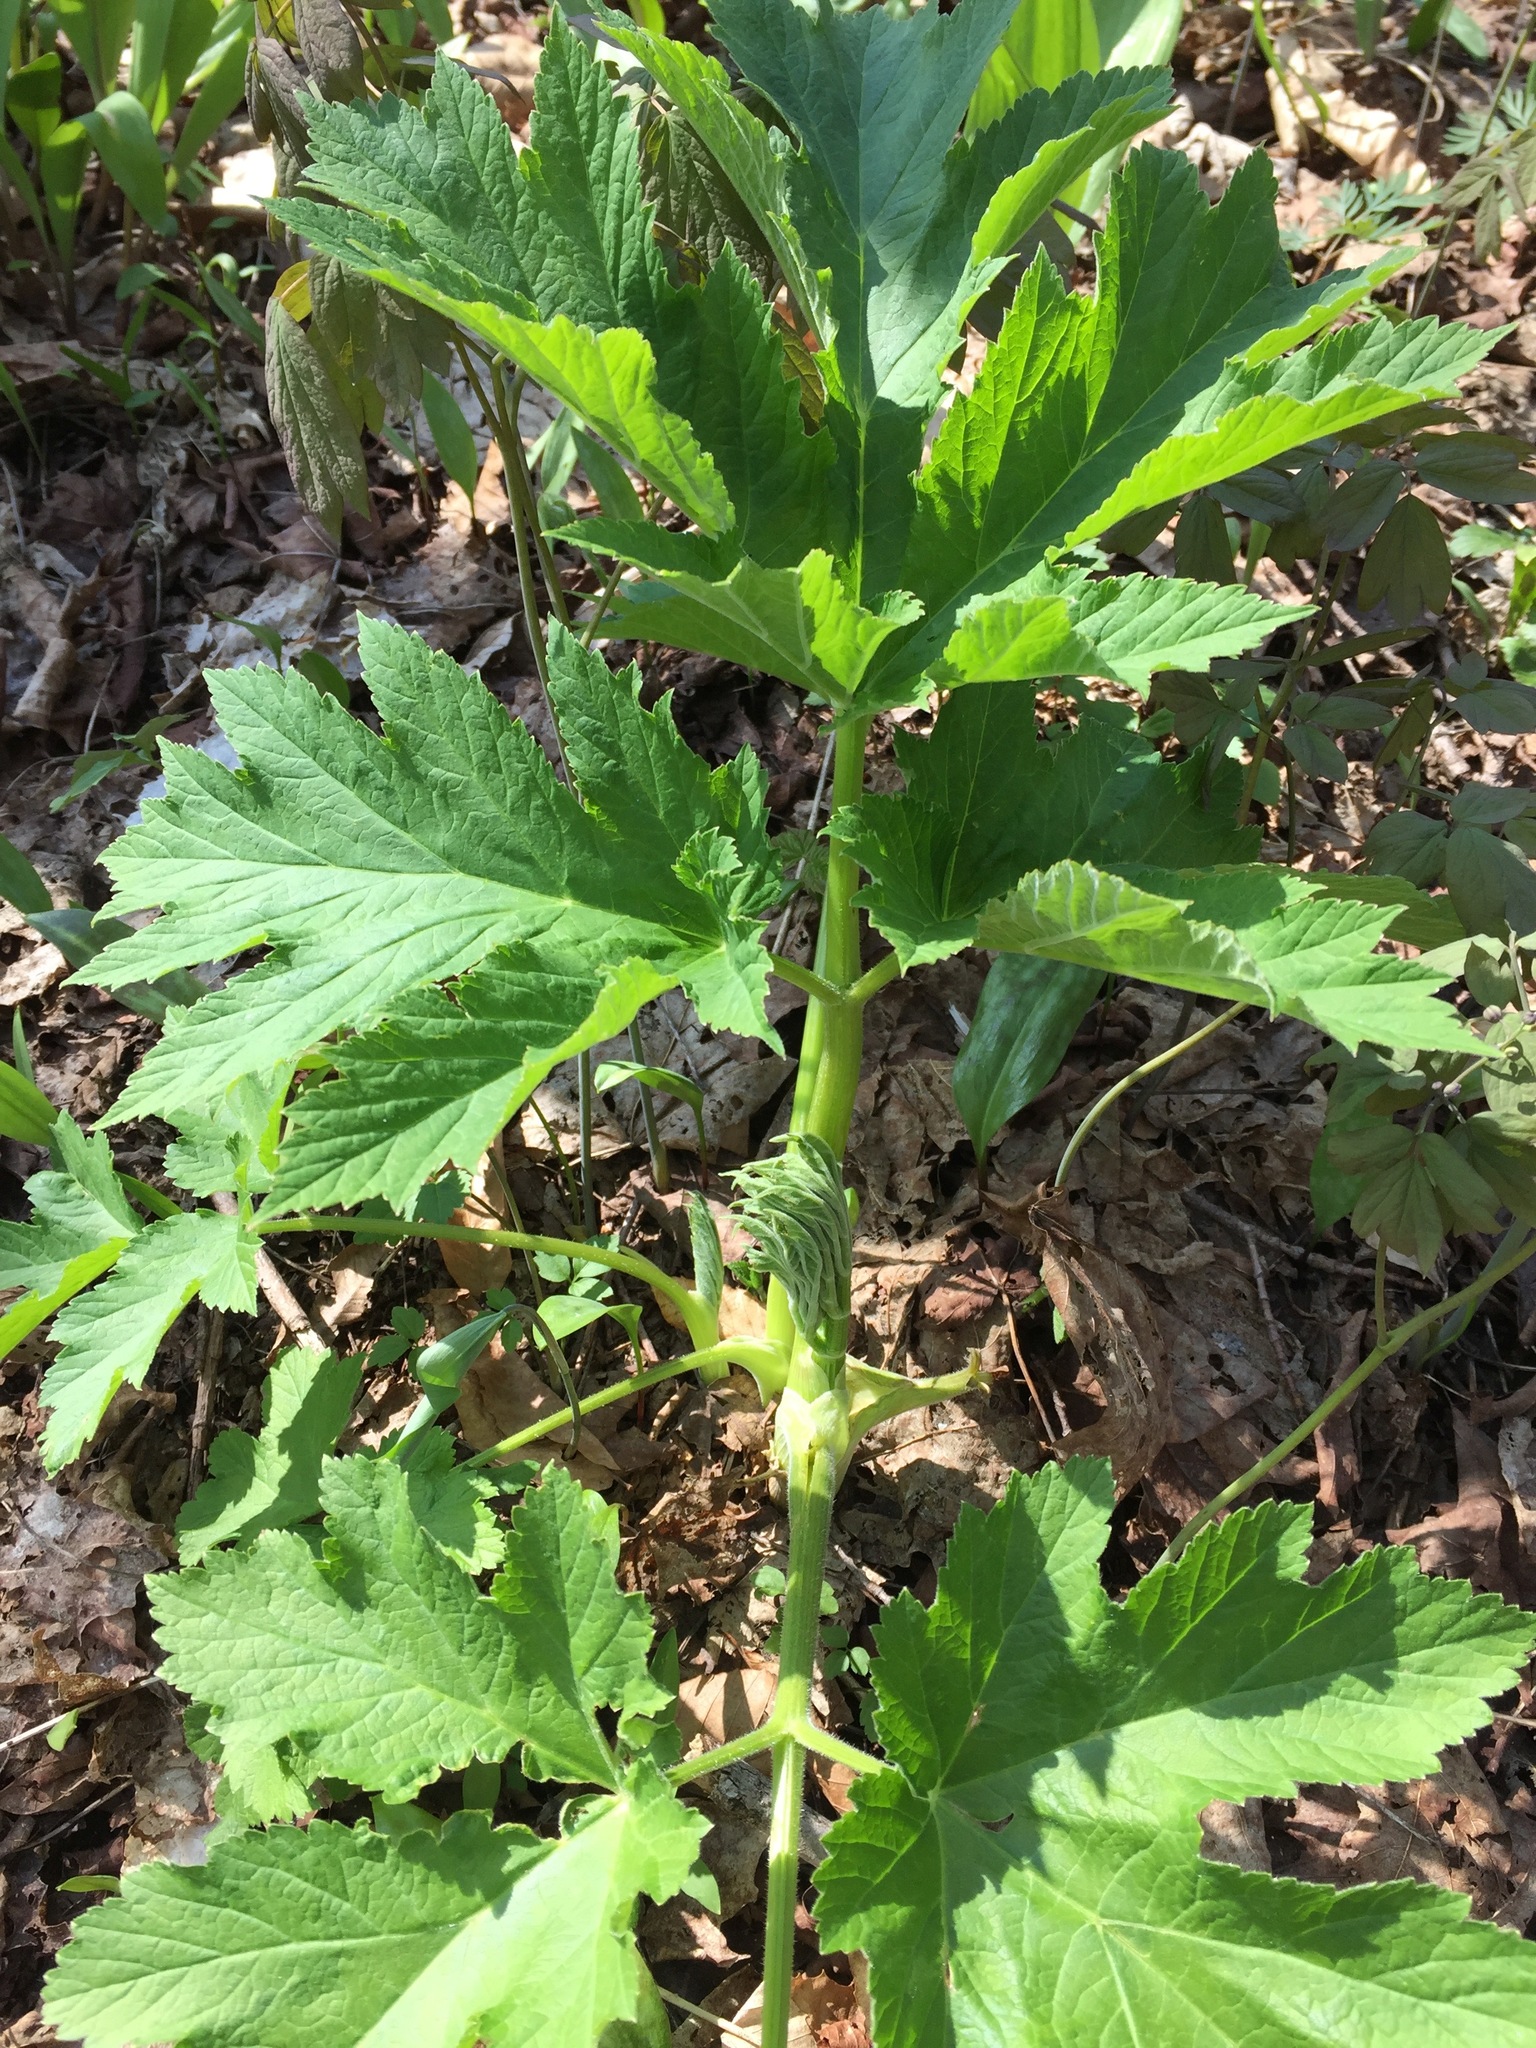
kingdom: Plantae
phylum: Tracheophyta
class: Magnoliopsida
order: Apiales
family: Apiaceae
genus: Heracleum
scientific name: Heracleum maximum
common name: American cow parsnip
